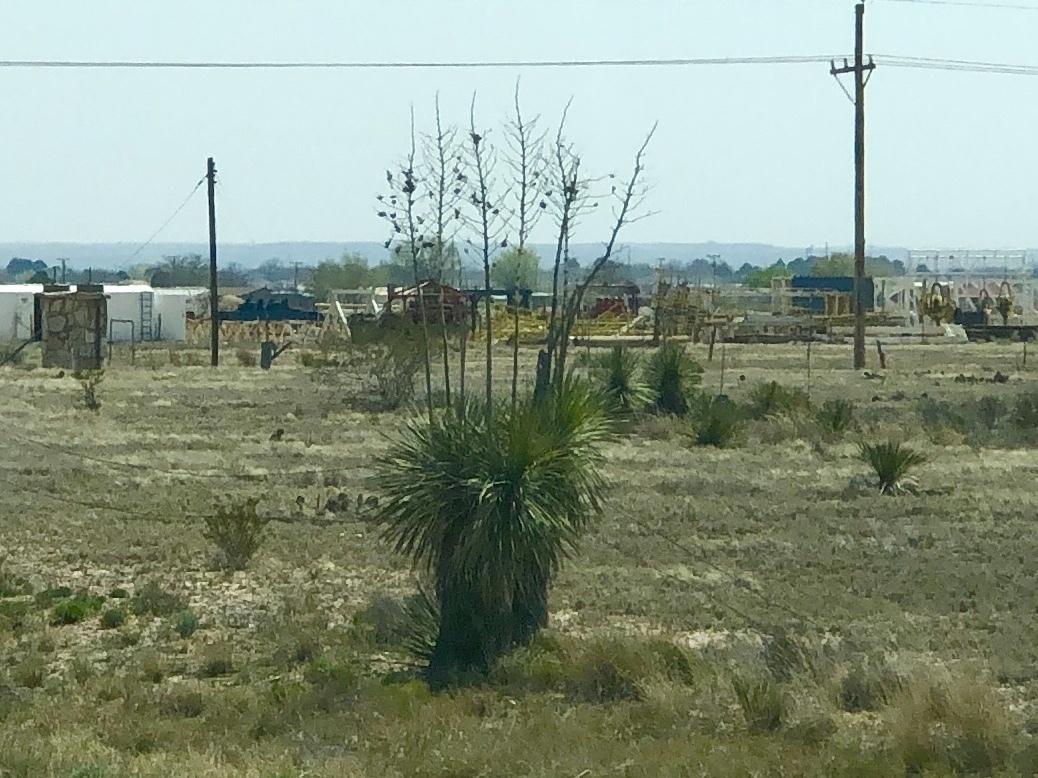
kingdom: Plantae
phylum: Tracheophyta
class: Liliopsida
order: Asparagales
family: Asparagaceae
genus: Yucca
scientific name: Yucca elata
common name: Palmella
